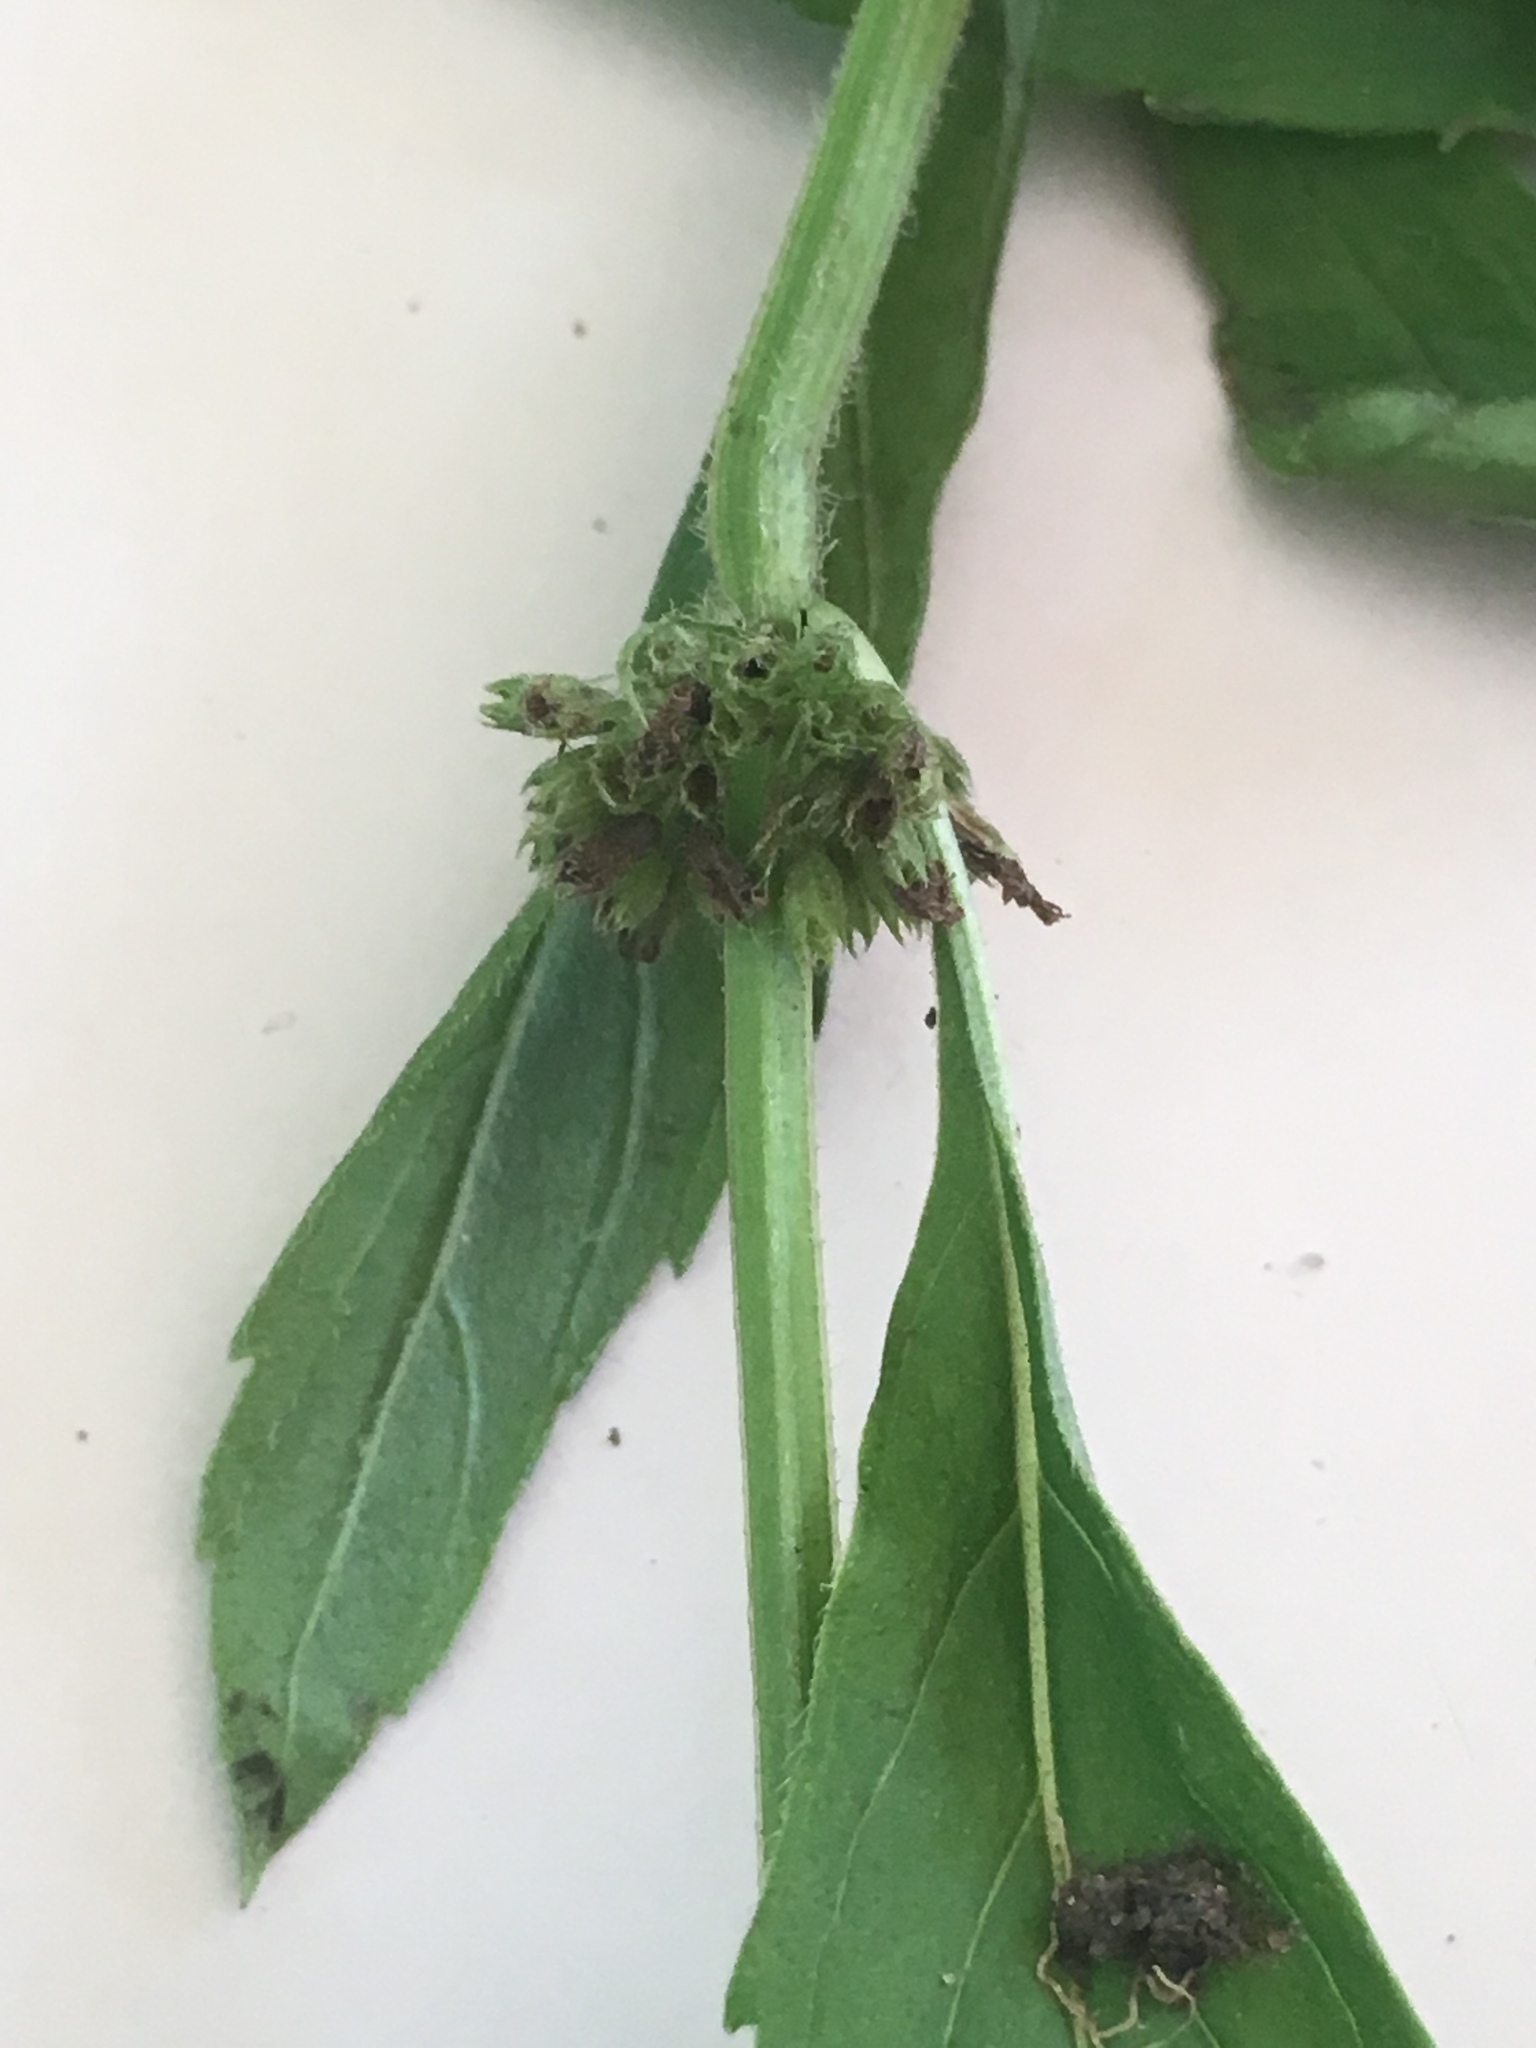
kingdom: Plantae
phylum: Tracheophyta
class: Magnoliopsida
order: Lamiales
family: Lamiaceae
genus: Mentha
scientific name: Mentha canadensis
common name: American corn mint
